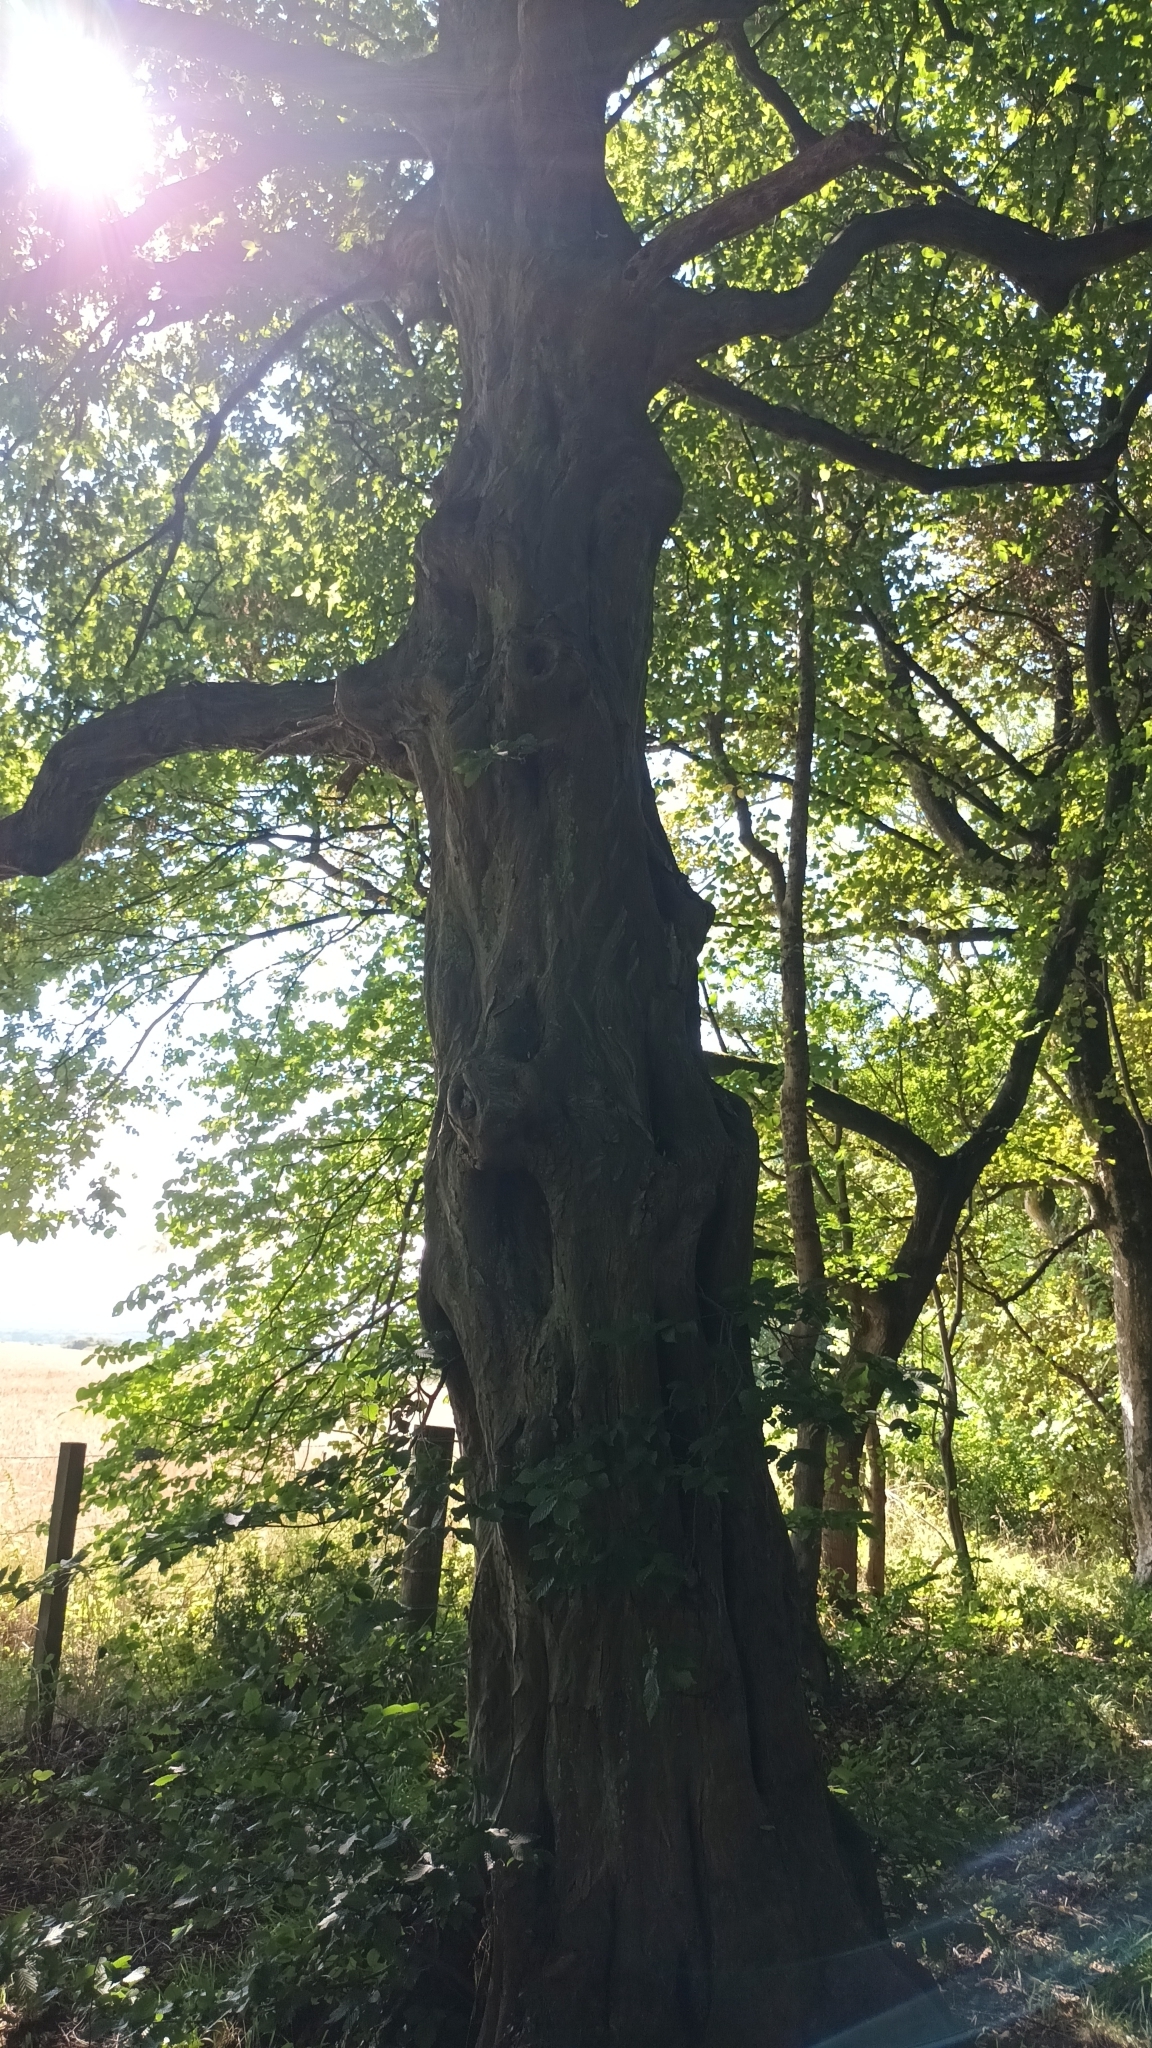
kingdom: Plantae
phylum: Tracheophyta
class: Magnoliopsida
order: Fagales
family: Betulaceae
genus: Carpinus
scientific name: Carpinus betulus
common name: Hornbeam
